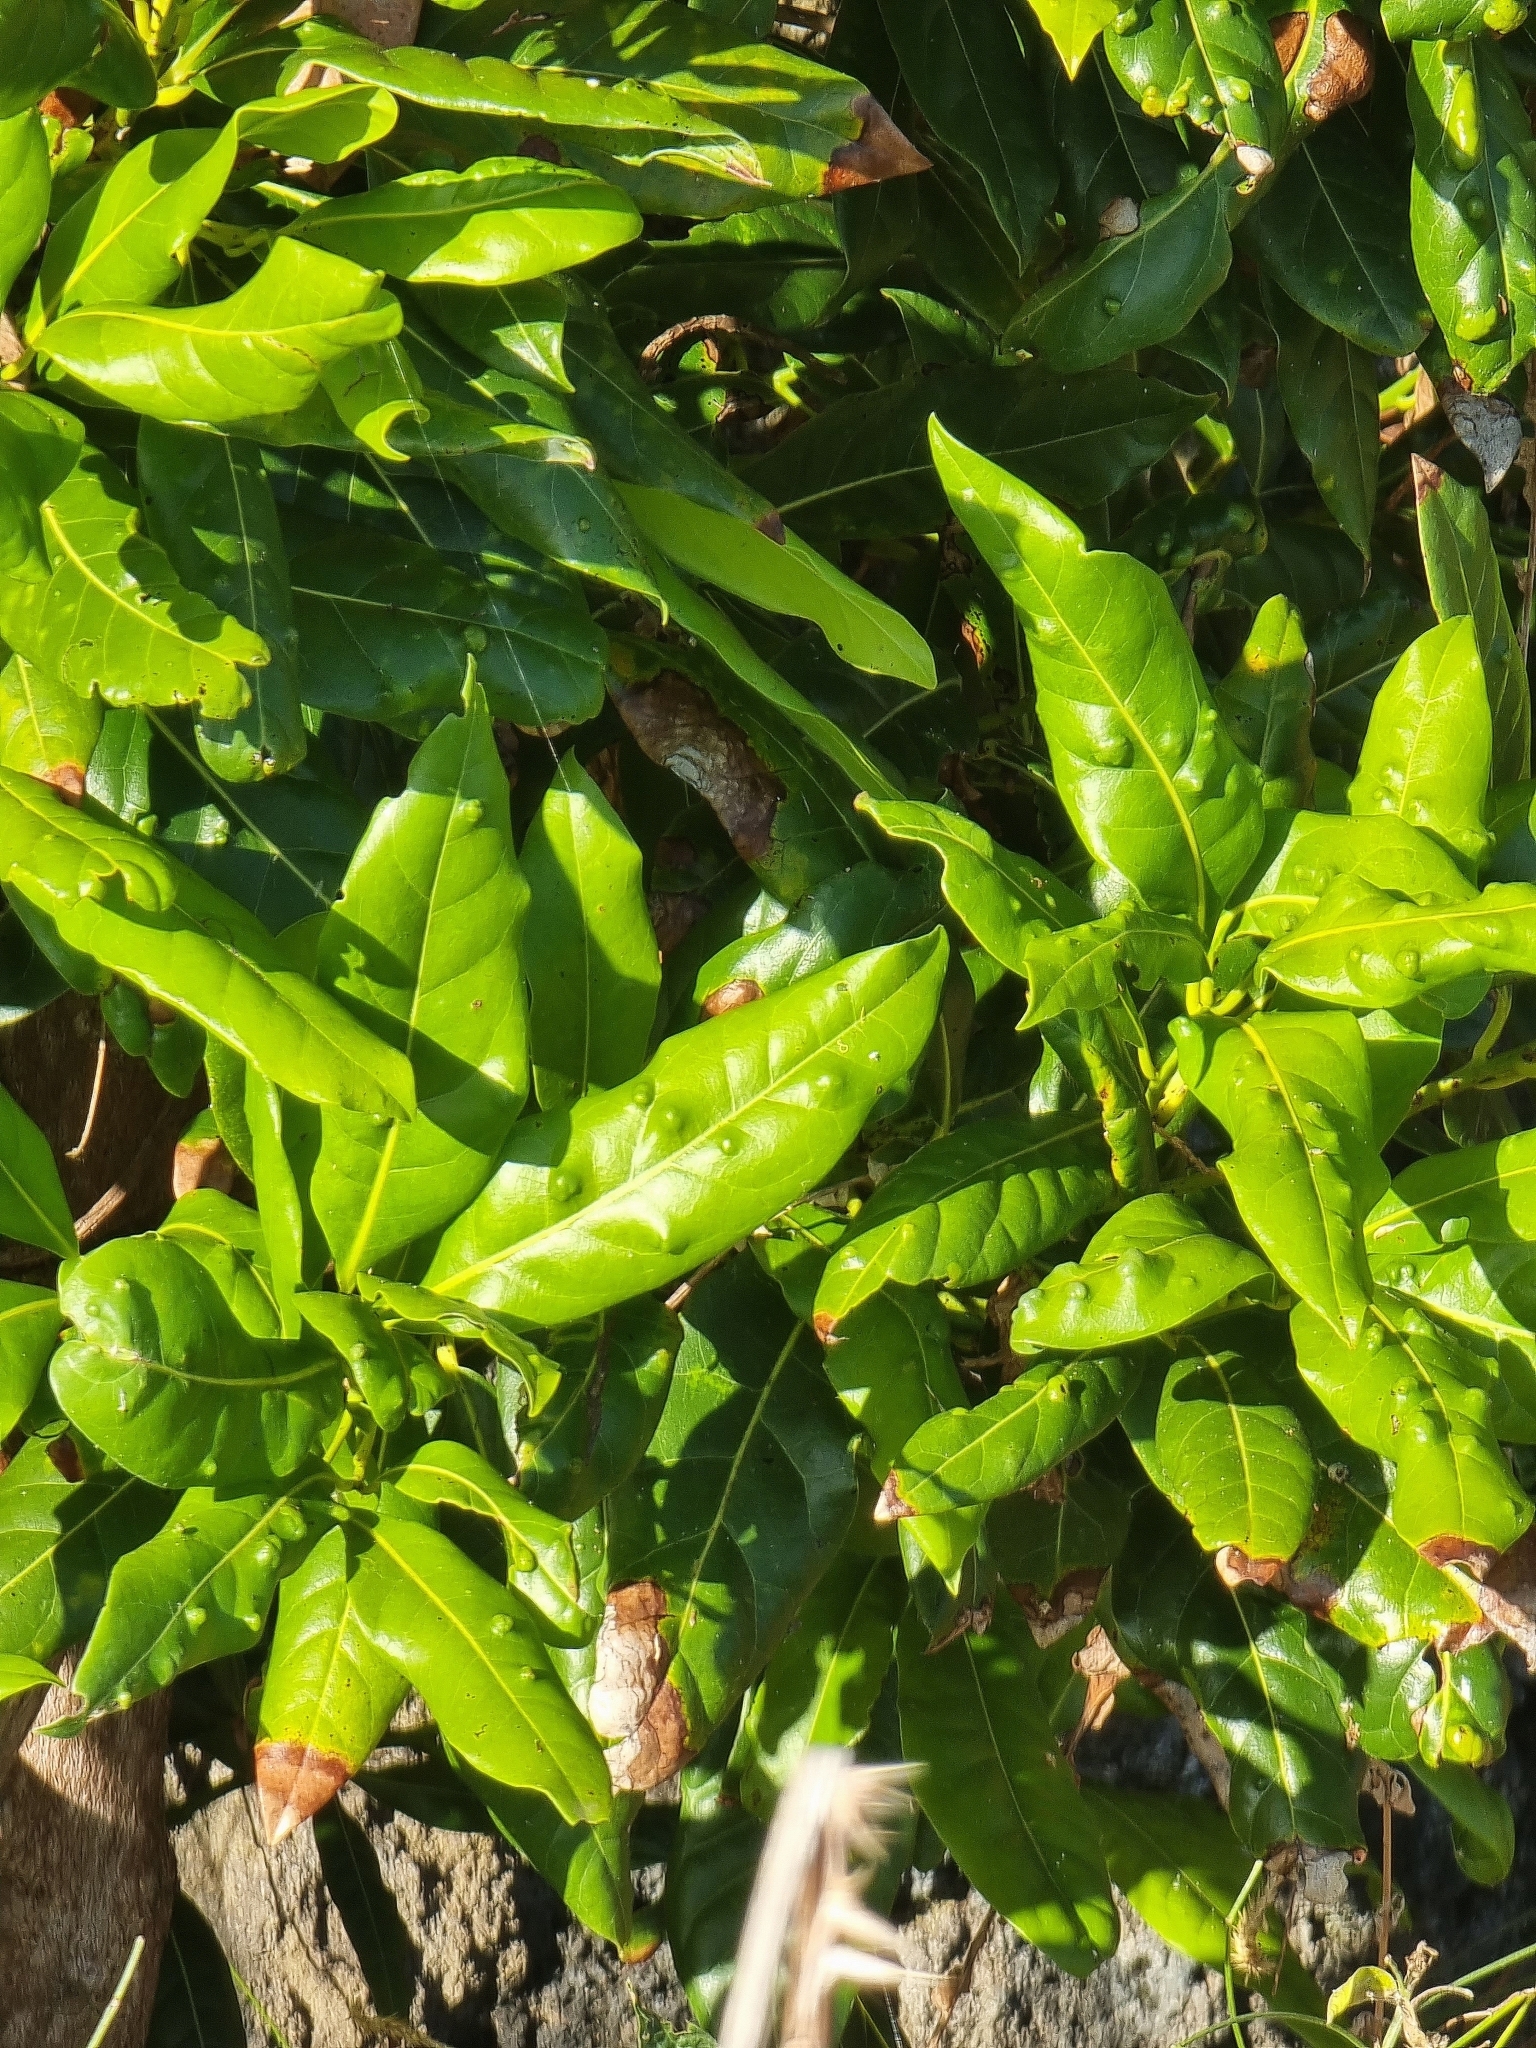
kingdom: Plantae
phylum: Tracheophyta
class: Magnoliopsida
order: Laurales
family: Lauraceae
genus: Apollonias
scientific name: Apollonias barbujana
